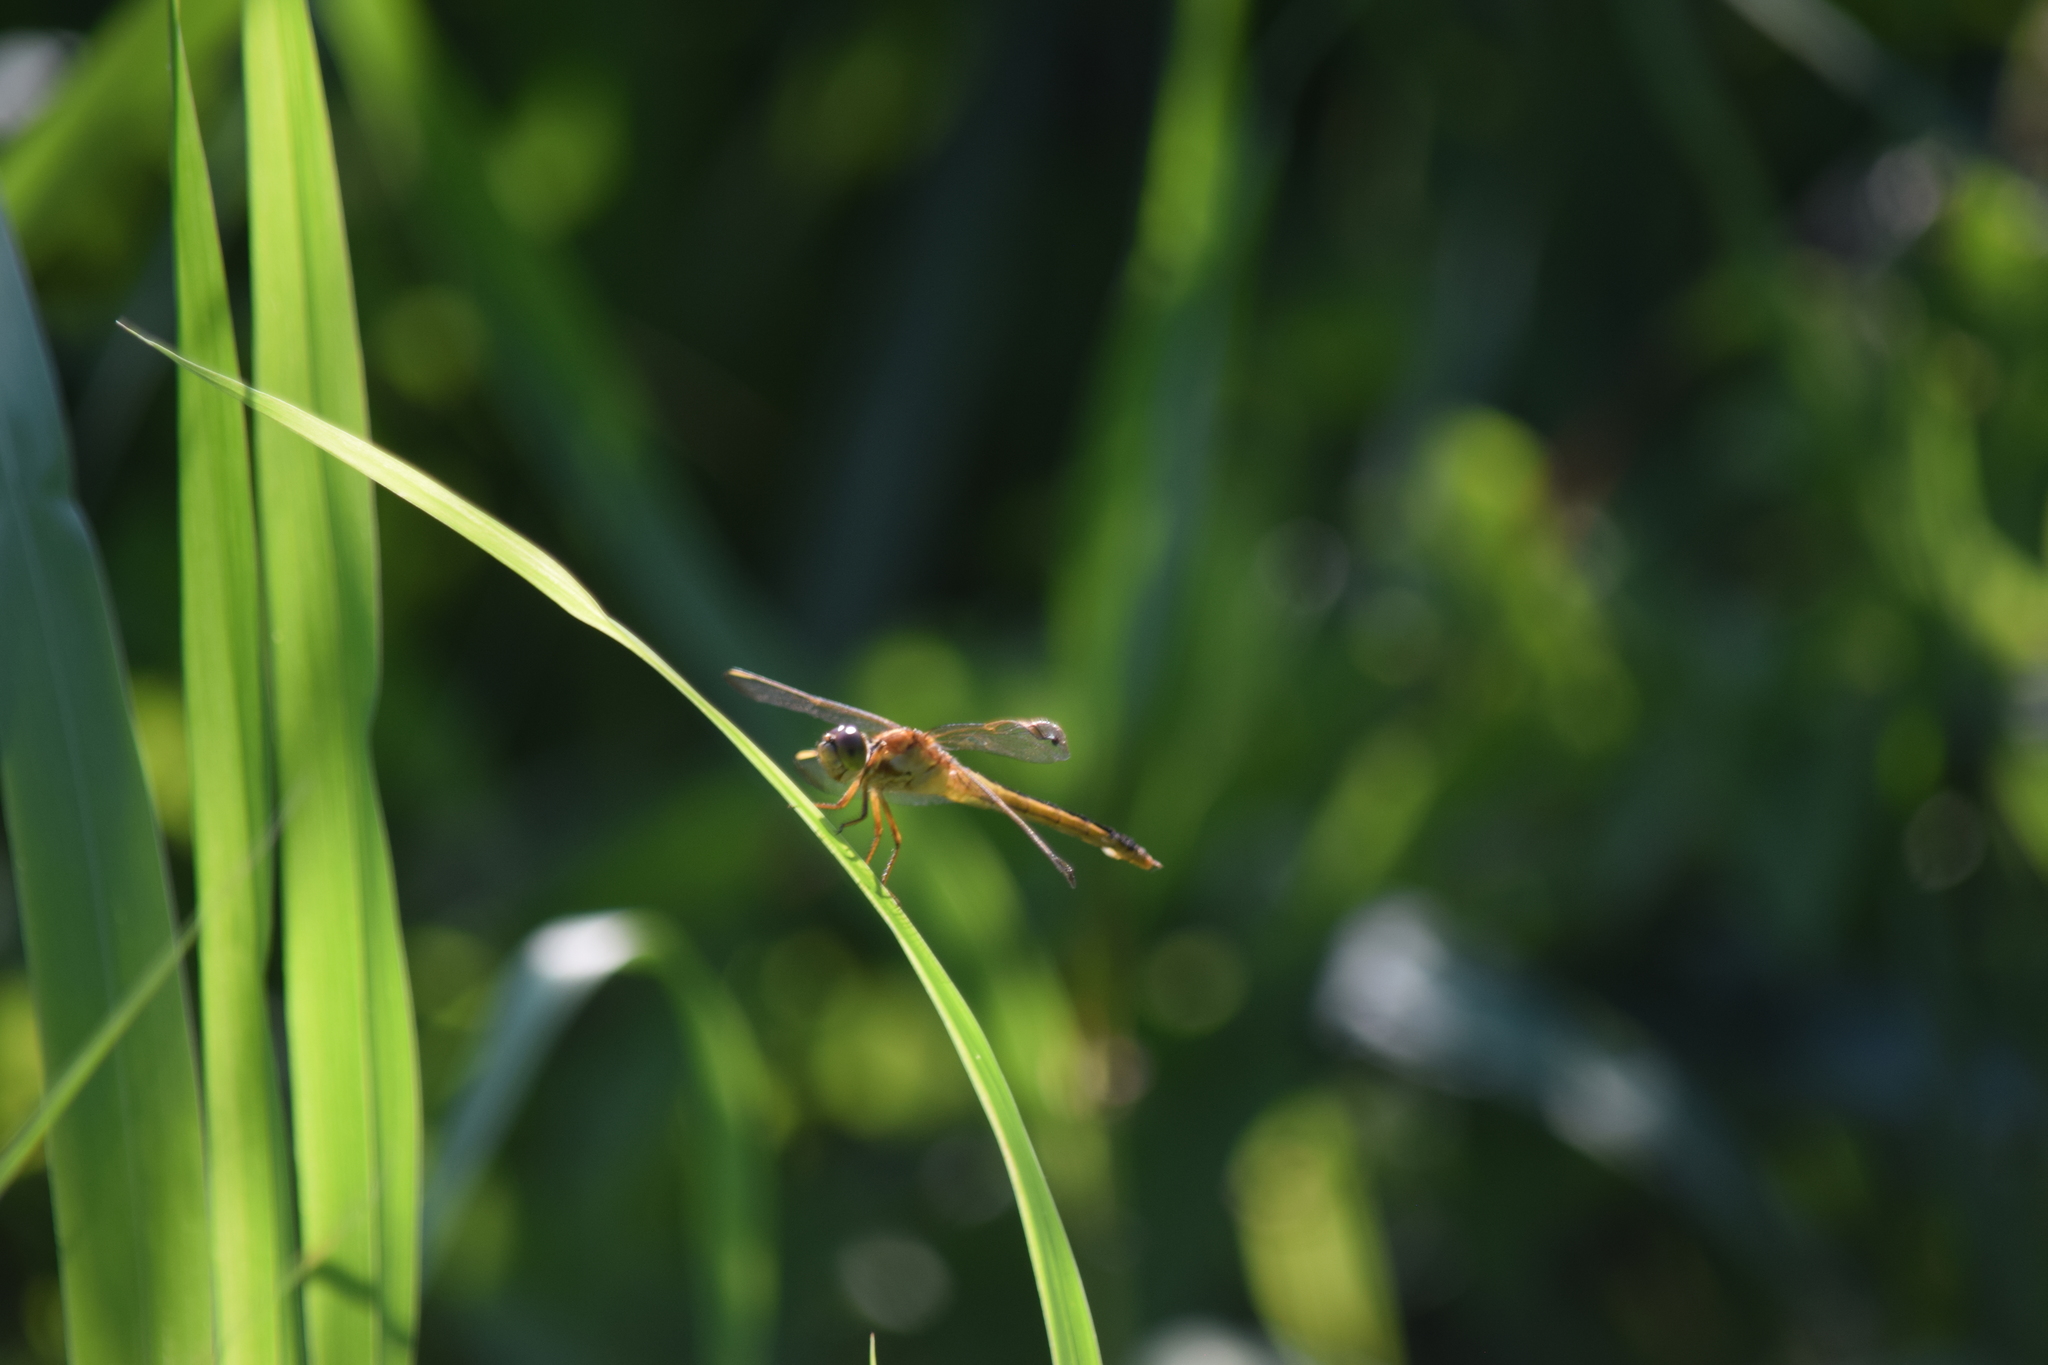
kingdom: Animalia
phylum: Arthropoda
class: Insecta
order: Odonata
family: Libellulidae
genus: Libellula
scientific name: Libellula needhami
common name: Needham's skimmer
